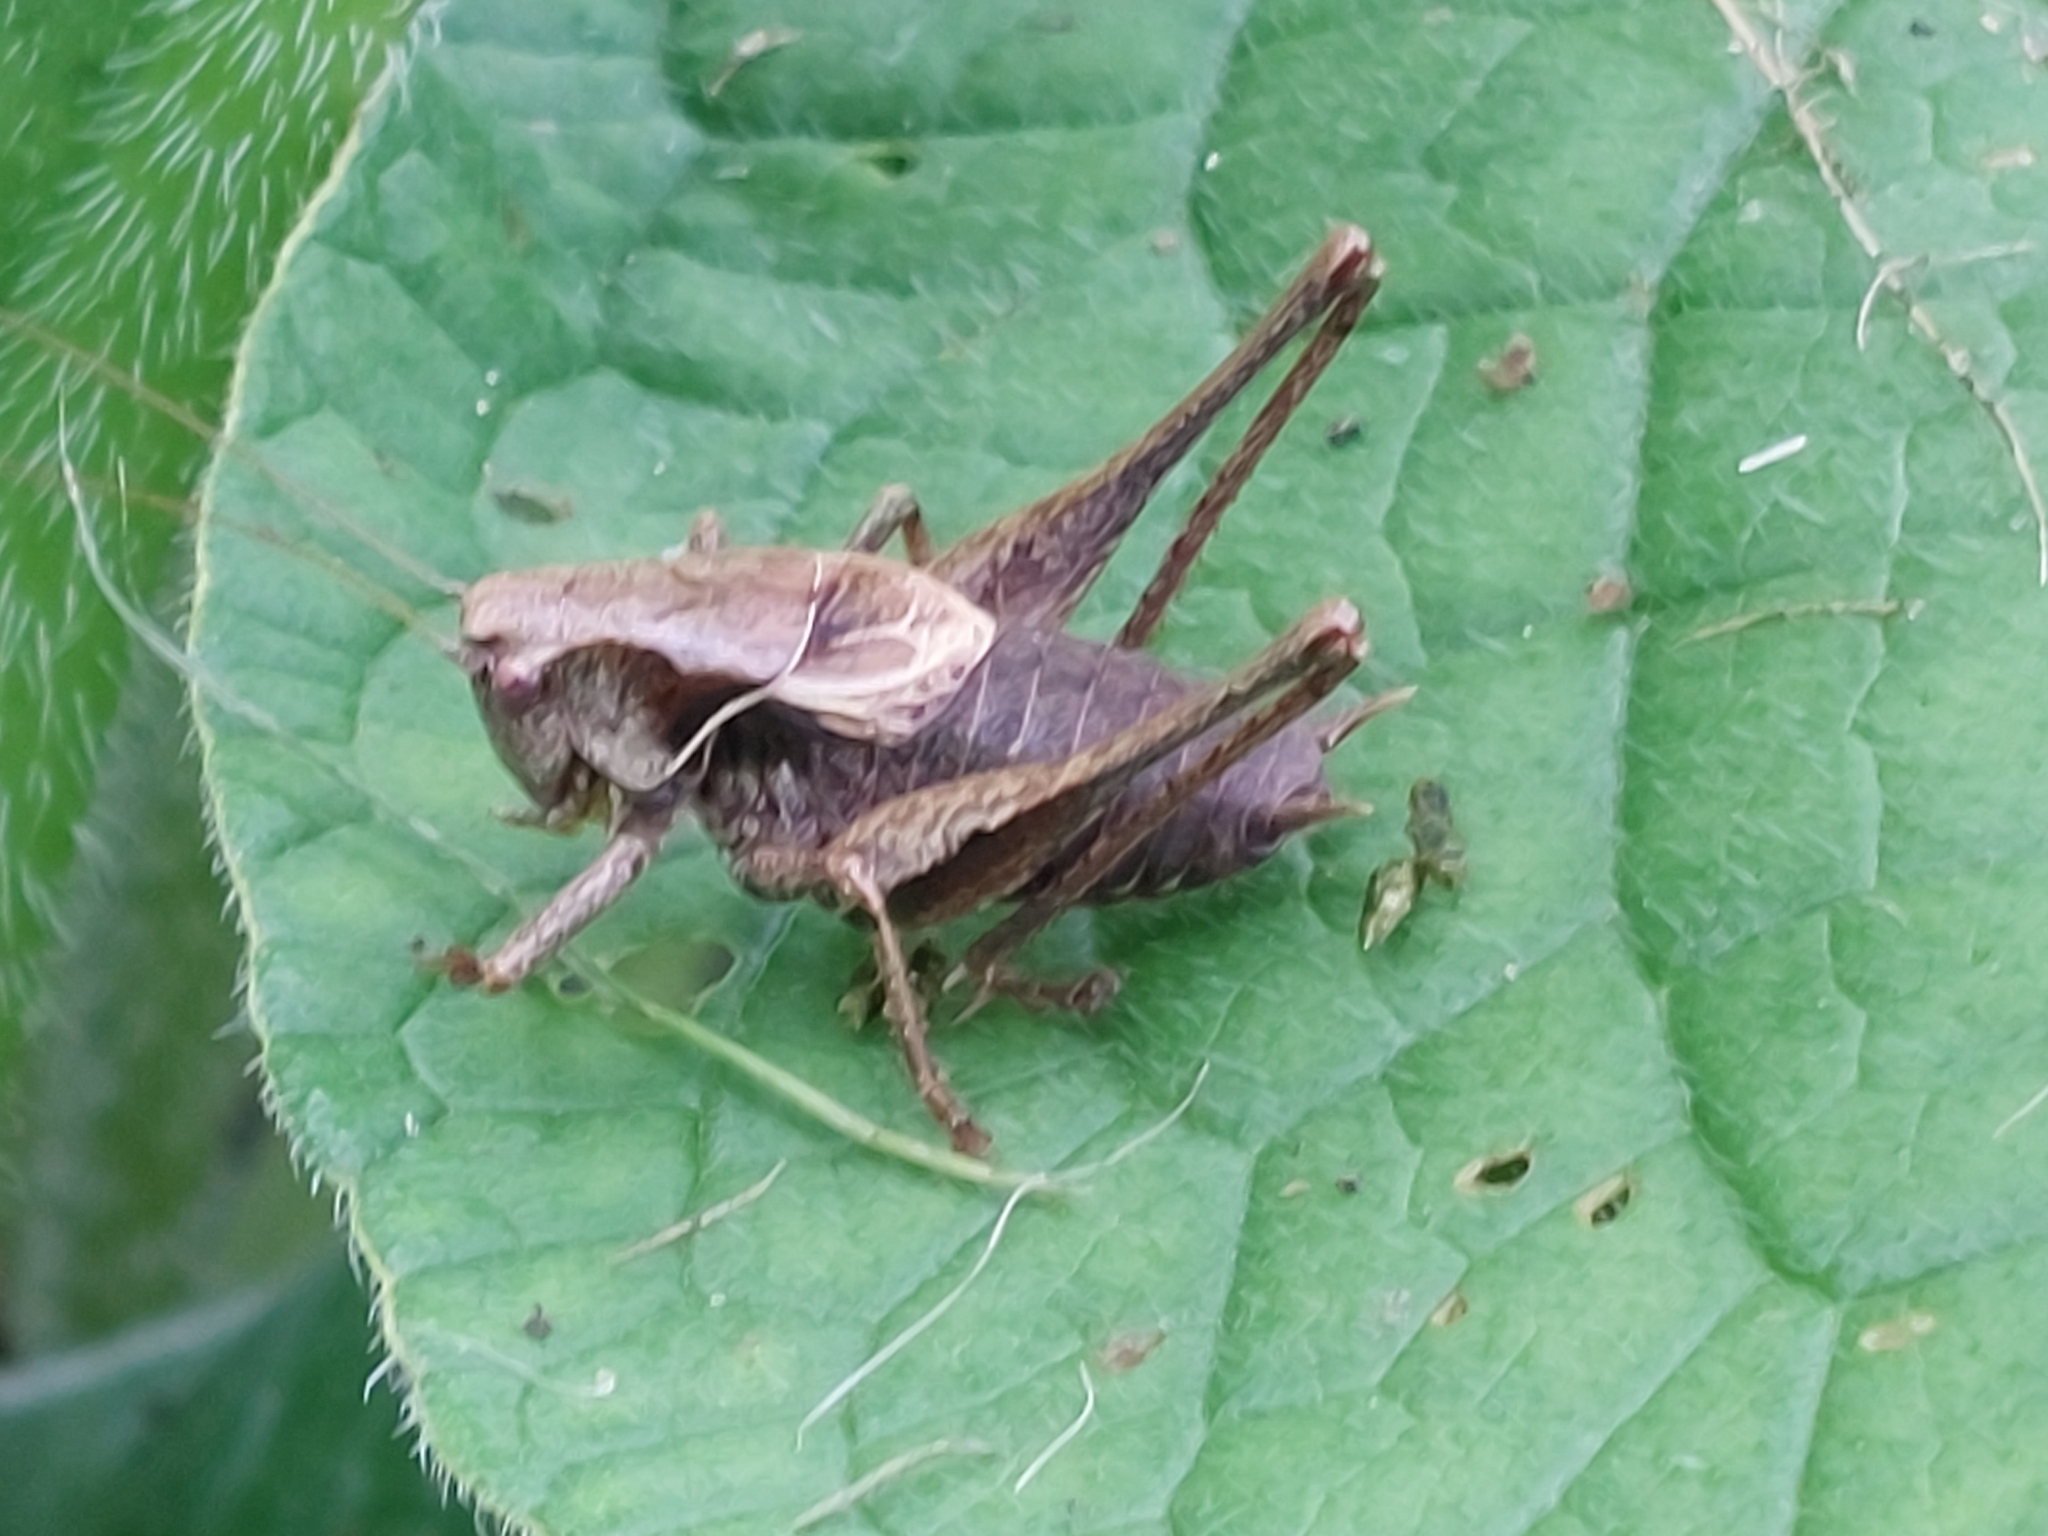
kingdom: Animalia
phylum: Arthropoda
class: Insecta
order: Orthoptera
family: Tettigoniidae
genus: Pholidoptera
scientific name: Pholidoptera griseoaptera
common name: Dark bush-cricket
